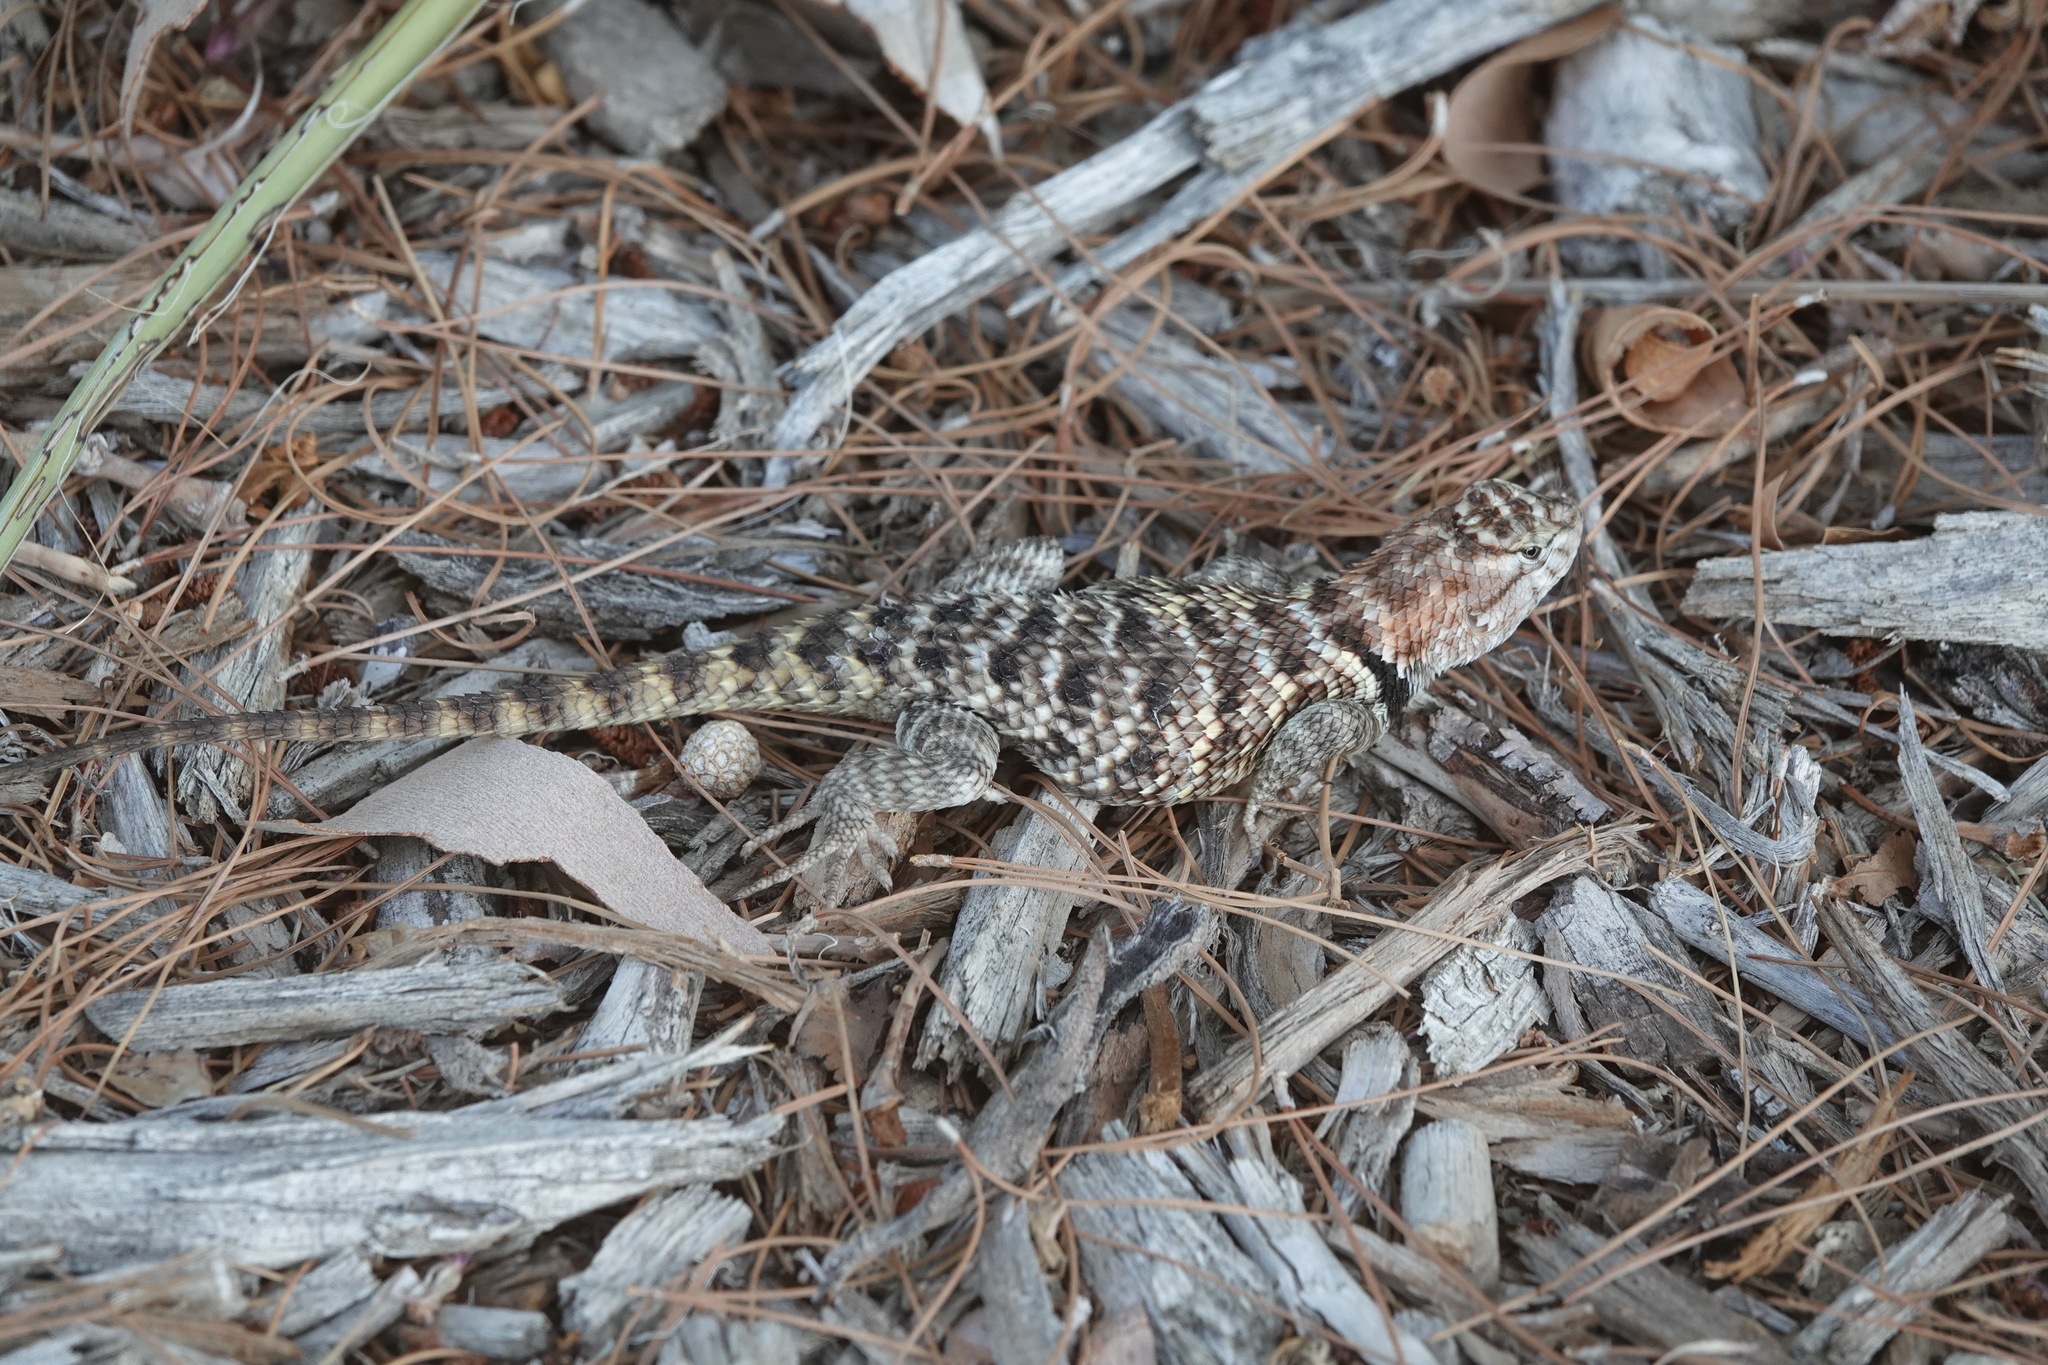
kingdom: Animalia
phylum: Chordata
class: Squamata
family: Phrynosomatidae
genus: Sceloporus
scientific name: Sceloporus uniformis
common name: Yellow-backed spiny lizard
